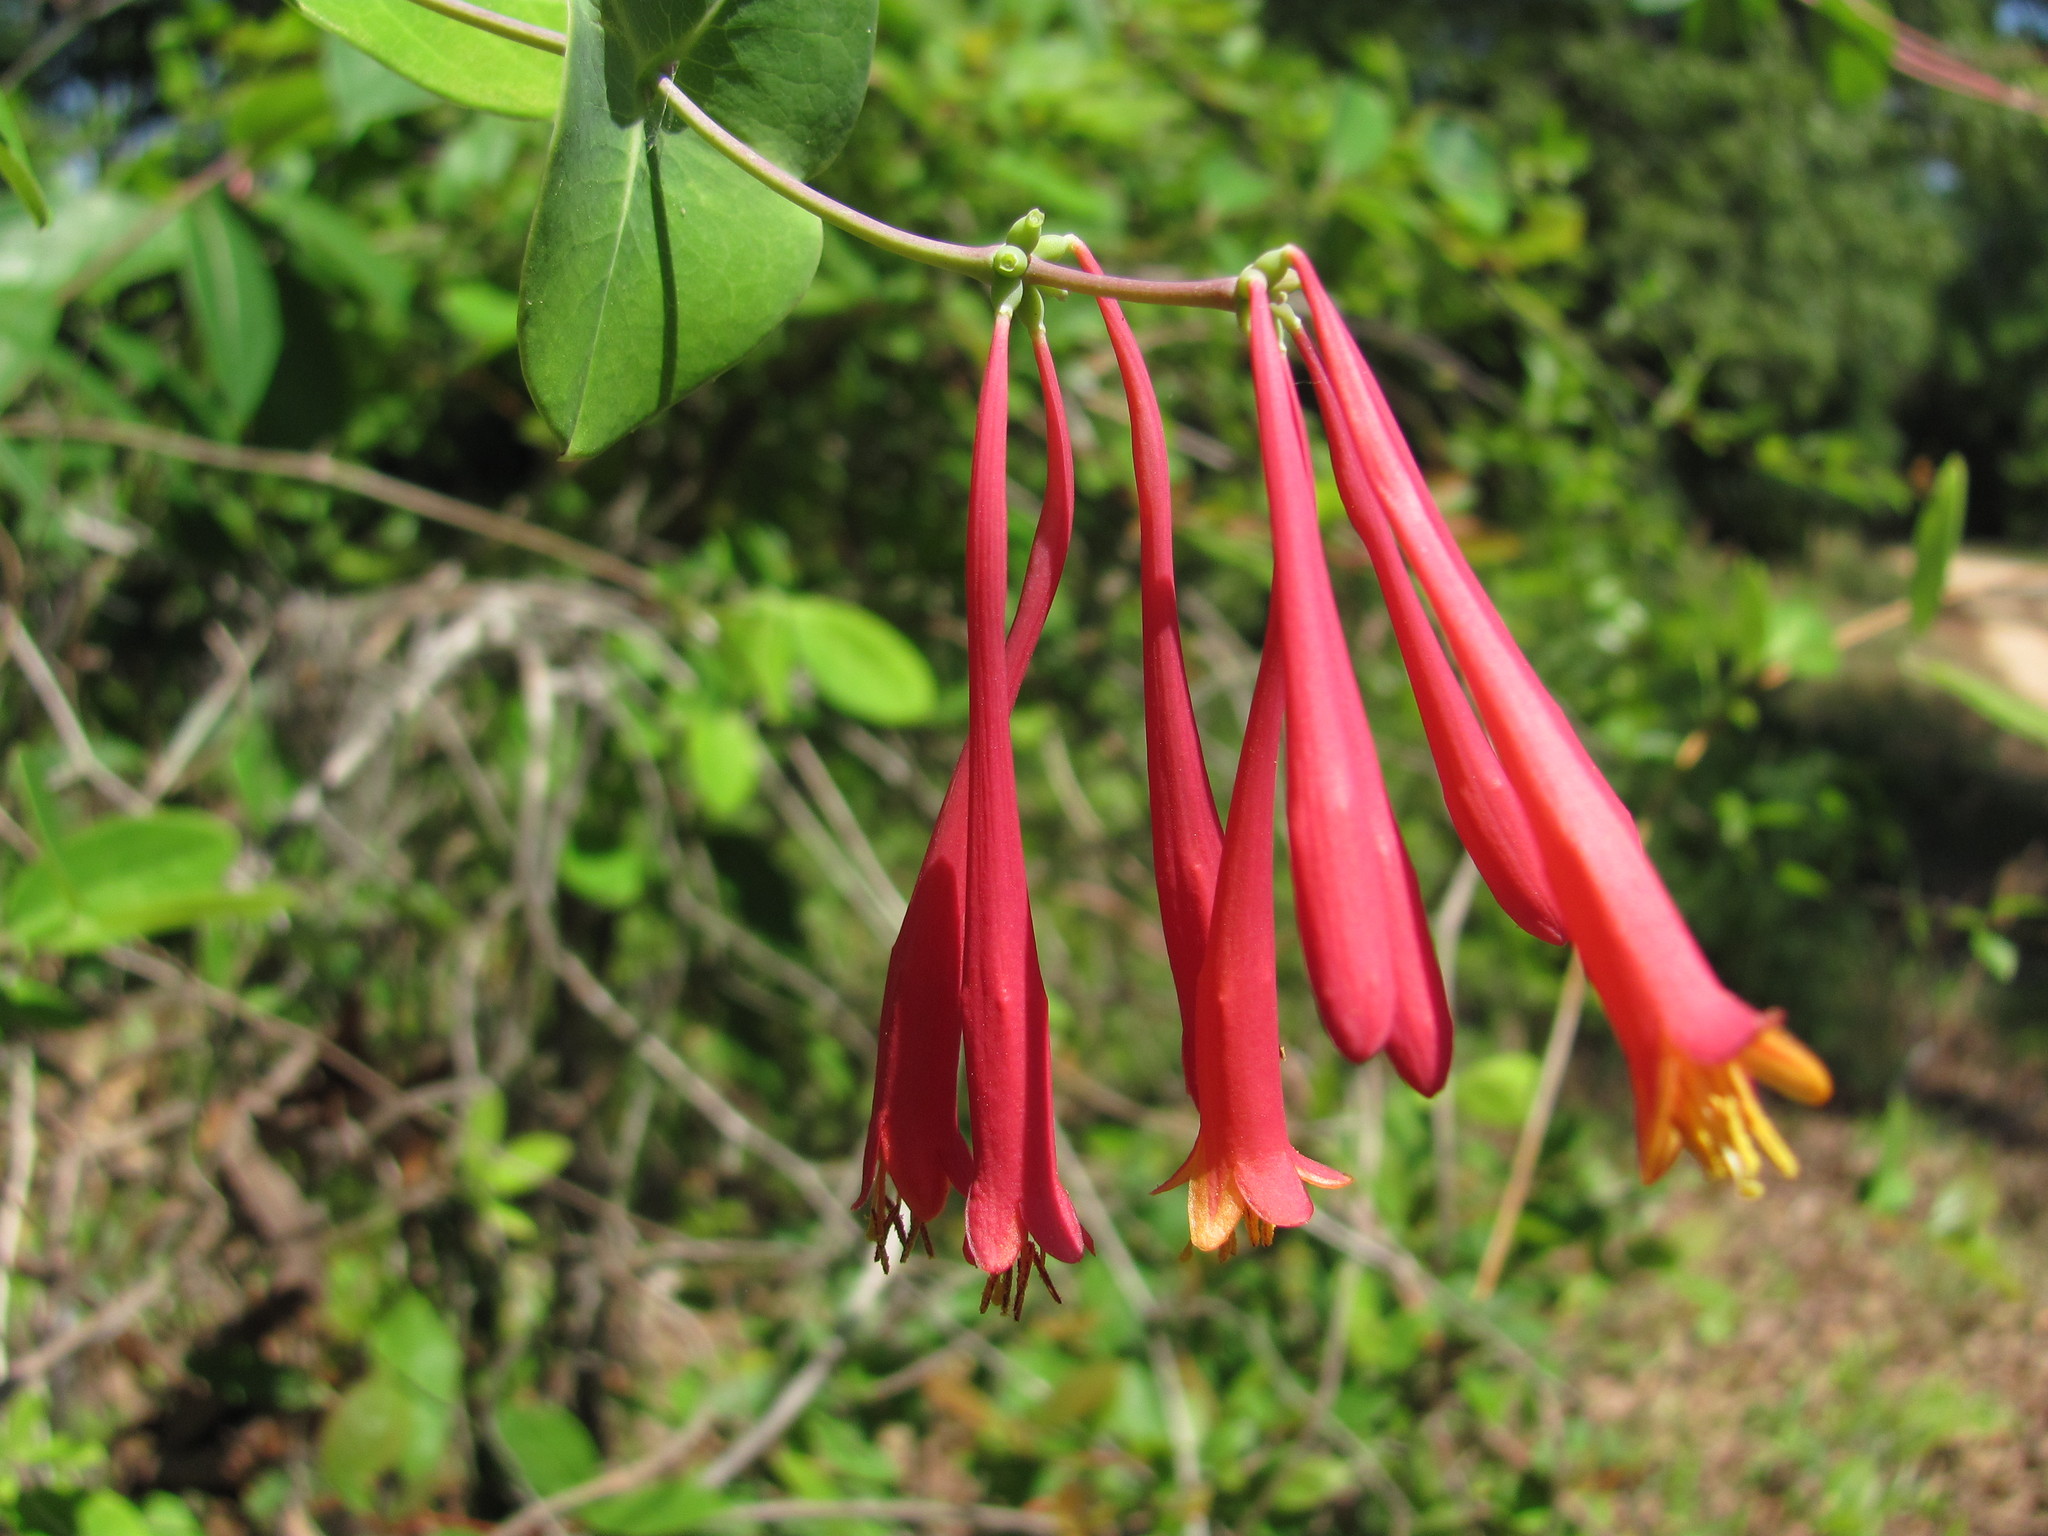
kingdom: Plantae
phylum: Tracheophyta
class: Magnoliopsida
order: Dipsacales
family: Caprifoliaceae
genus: Lonicera
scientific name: Lonicera sempervirens
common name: Coral honeysuckle
